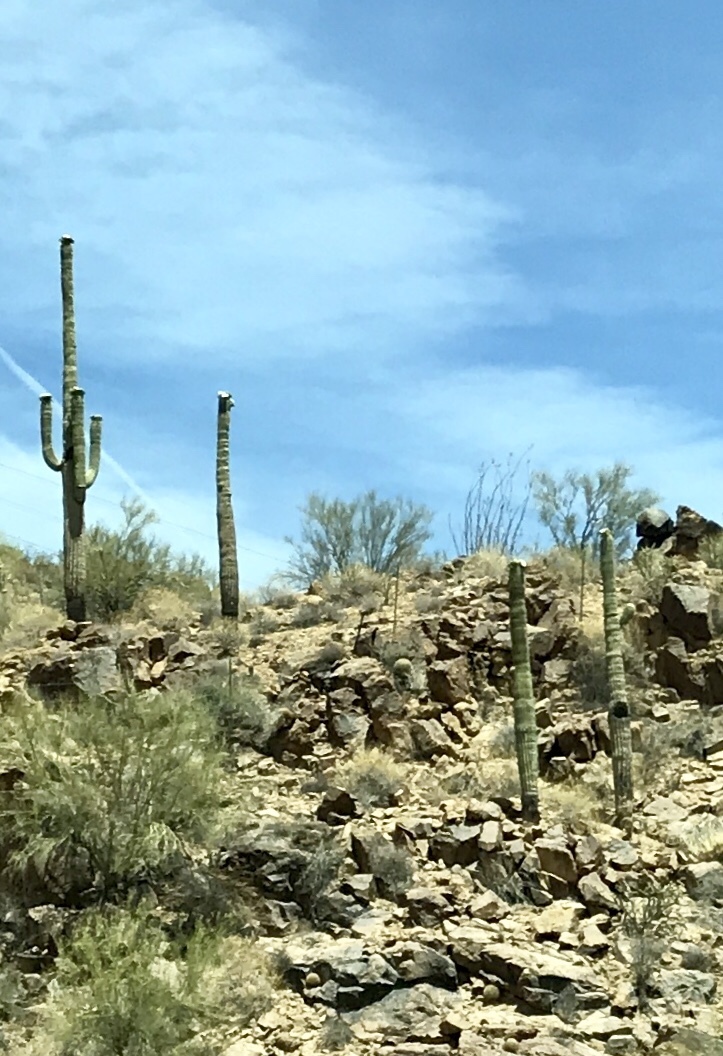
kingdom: Plantae
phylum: Tracheophyta
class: Magnoliopsida
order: Caryophyllales
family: Cactaceae
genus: Carnegiea
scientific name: Carnegiea gigantea
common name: Saguaro
